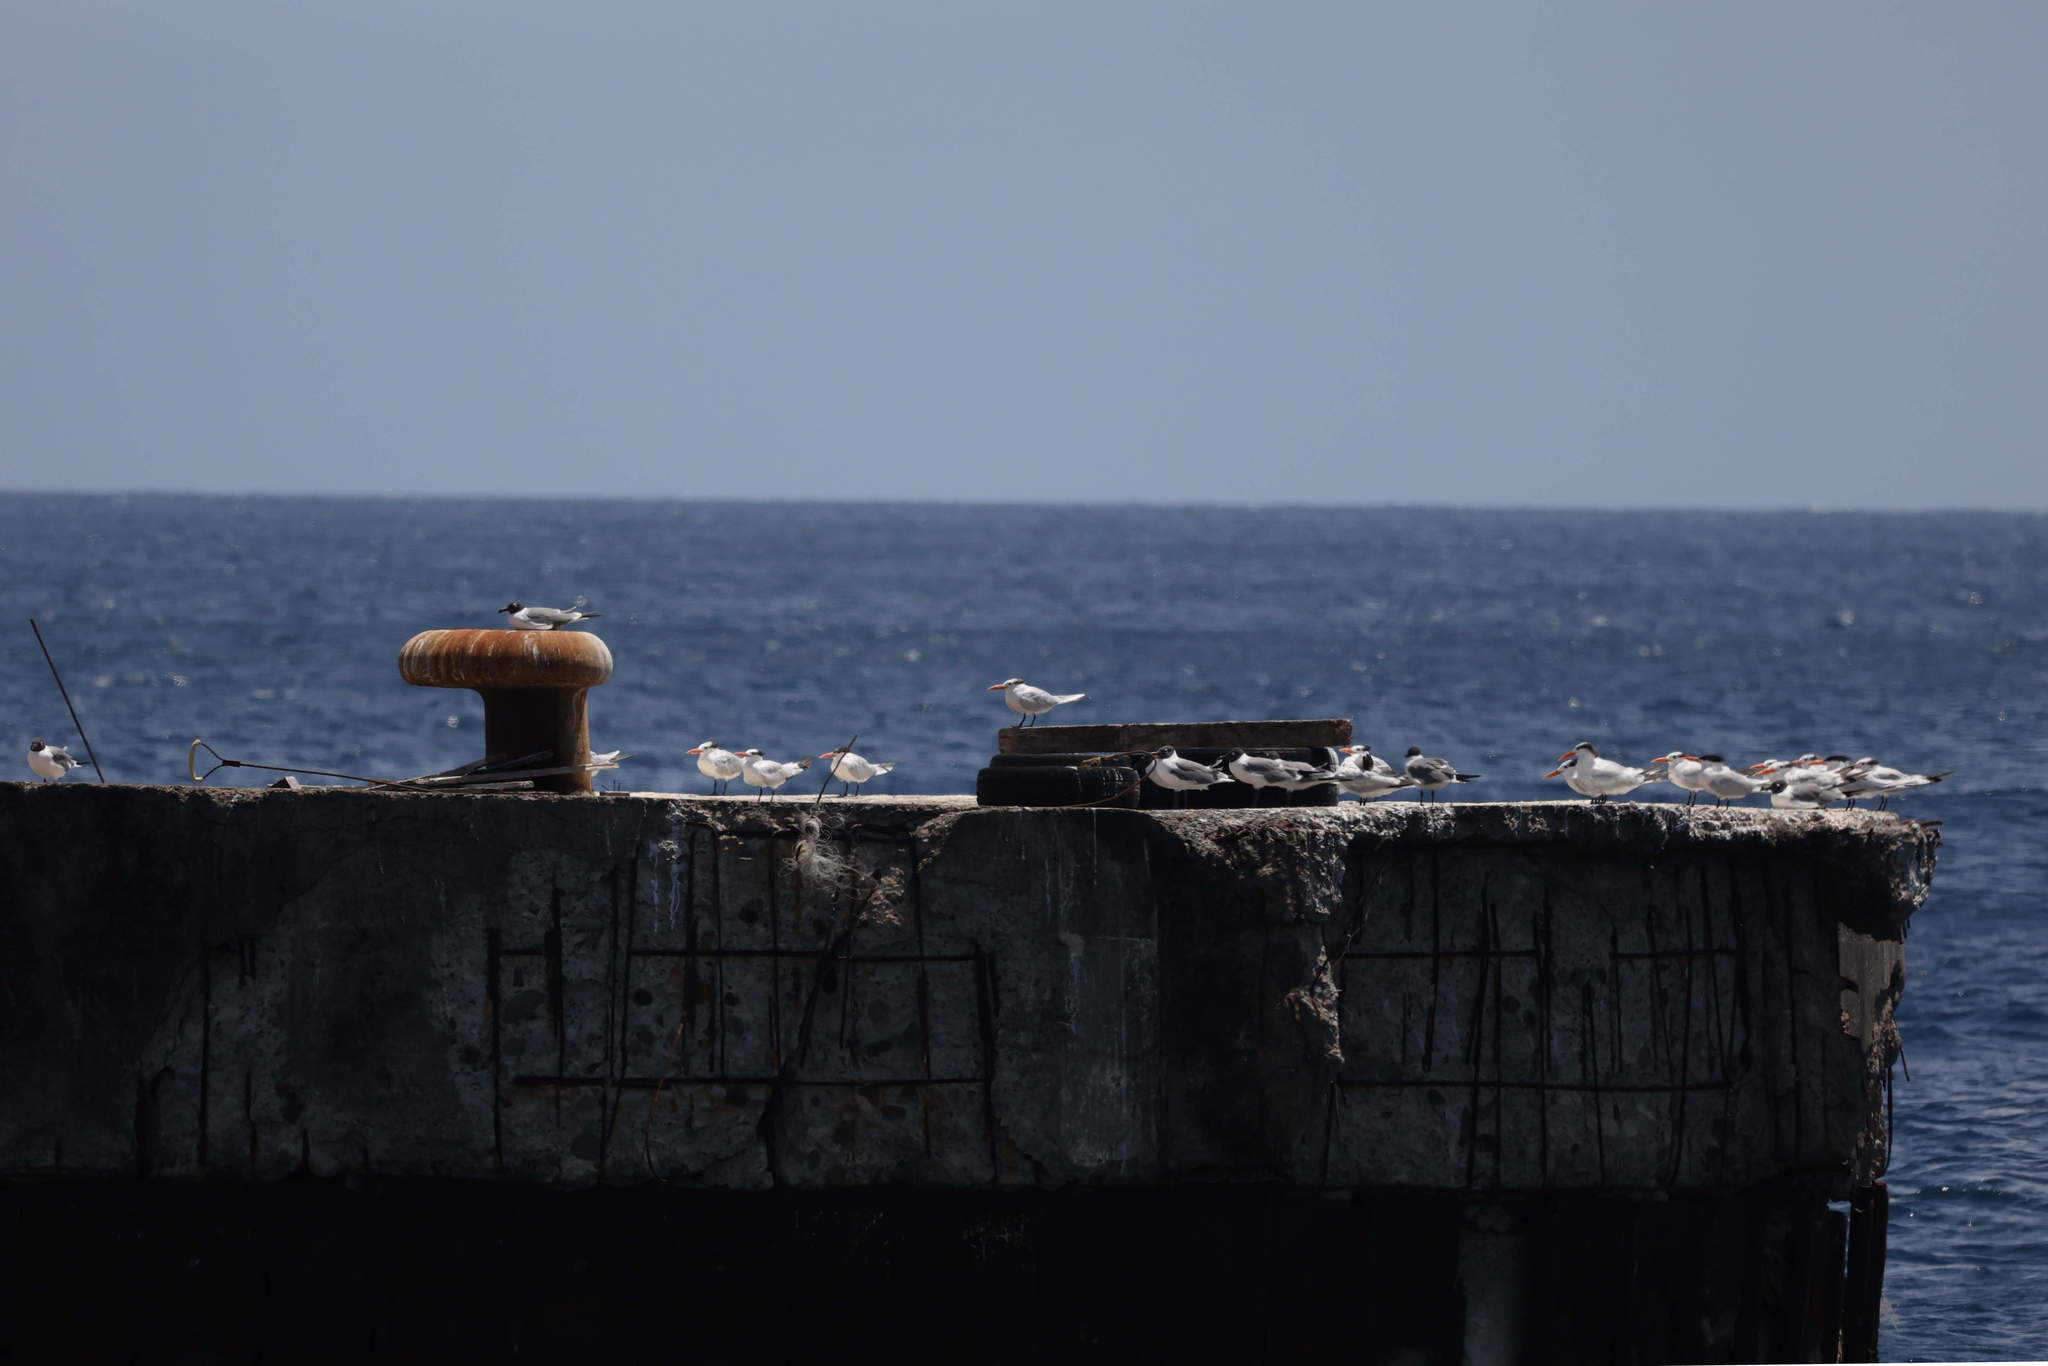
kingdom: Animalia
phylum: Chordata
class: Aves
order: Charadriiformes
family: Laridae
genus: Thalasseus
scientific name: Thalasseus maximus
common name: Royal tern
